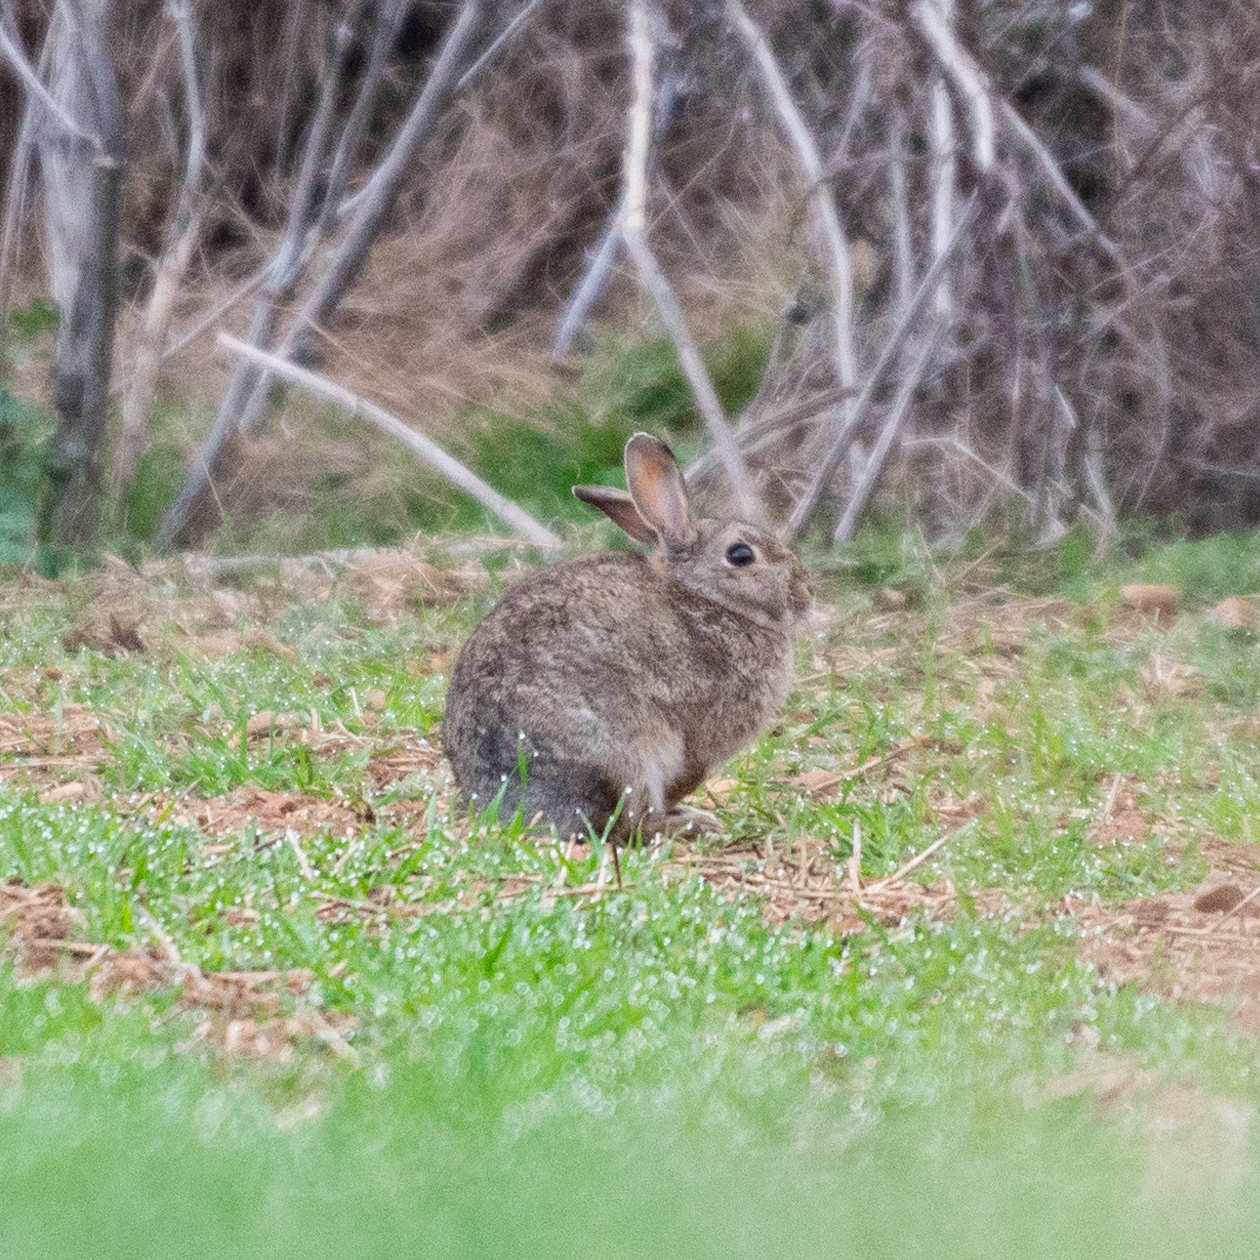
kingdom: Animalia
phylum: Chordata
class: Mammalia
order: Lagomorpha
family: Leporidae
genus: Oryctolagus
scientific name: Oryctolagus cuniculus
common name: European rabbit
